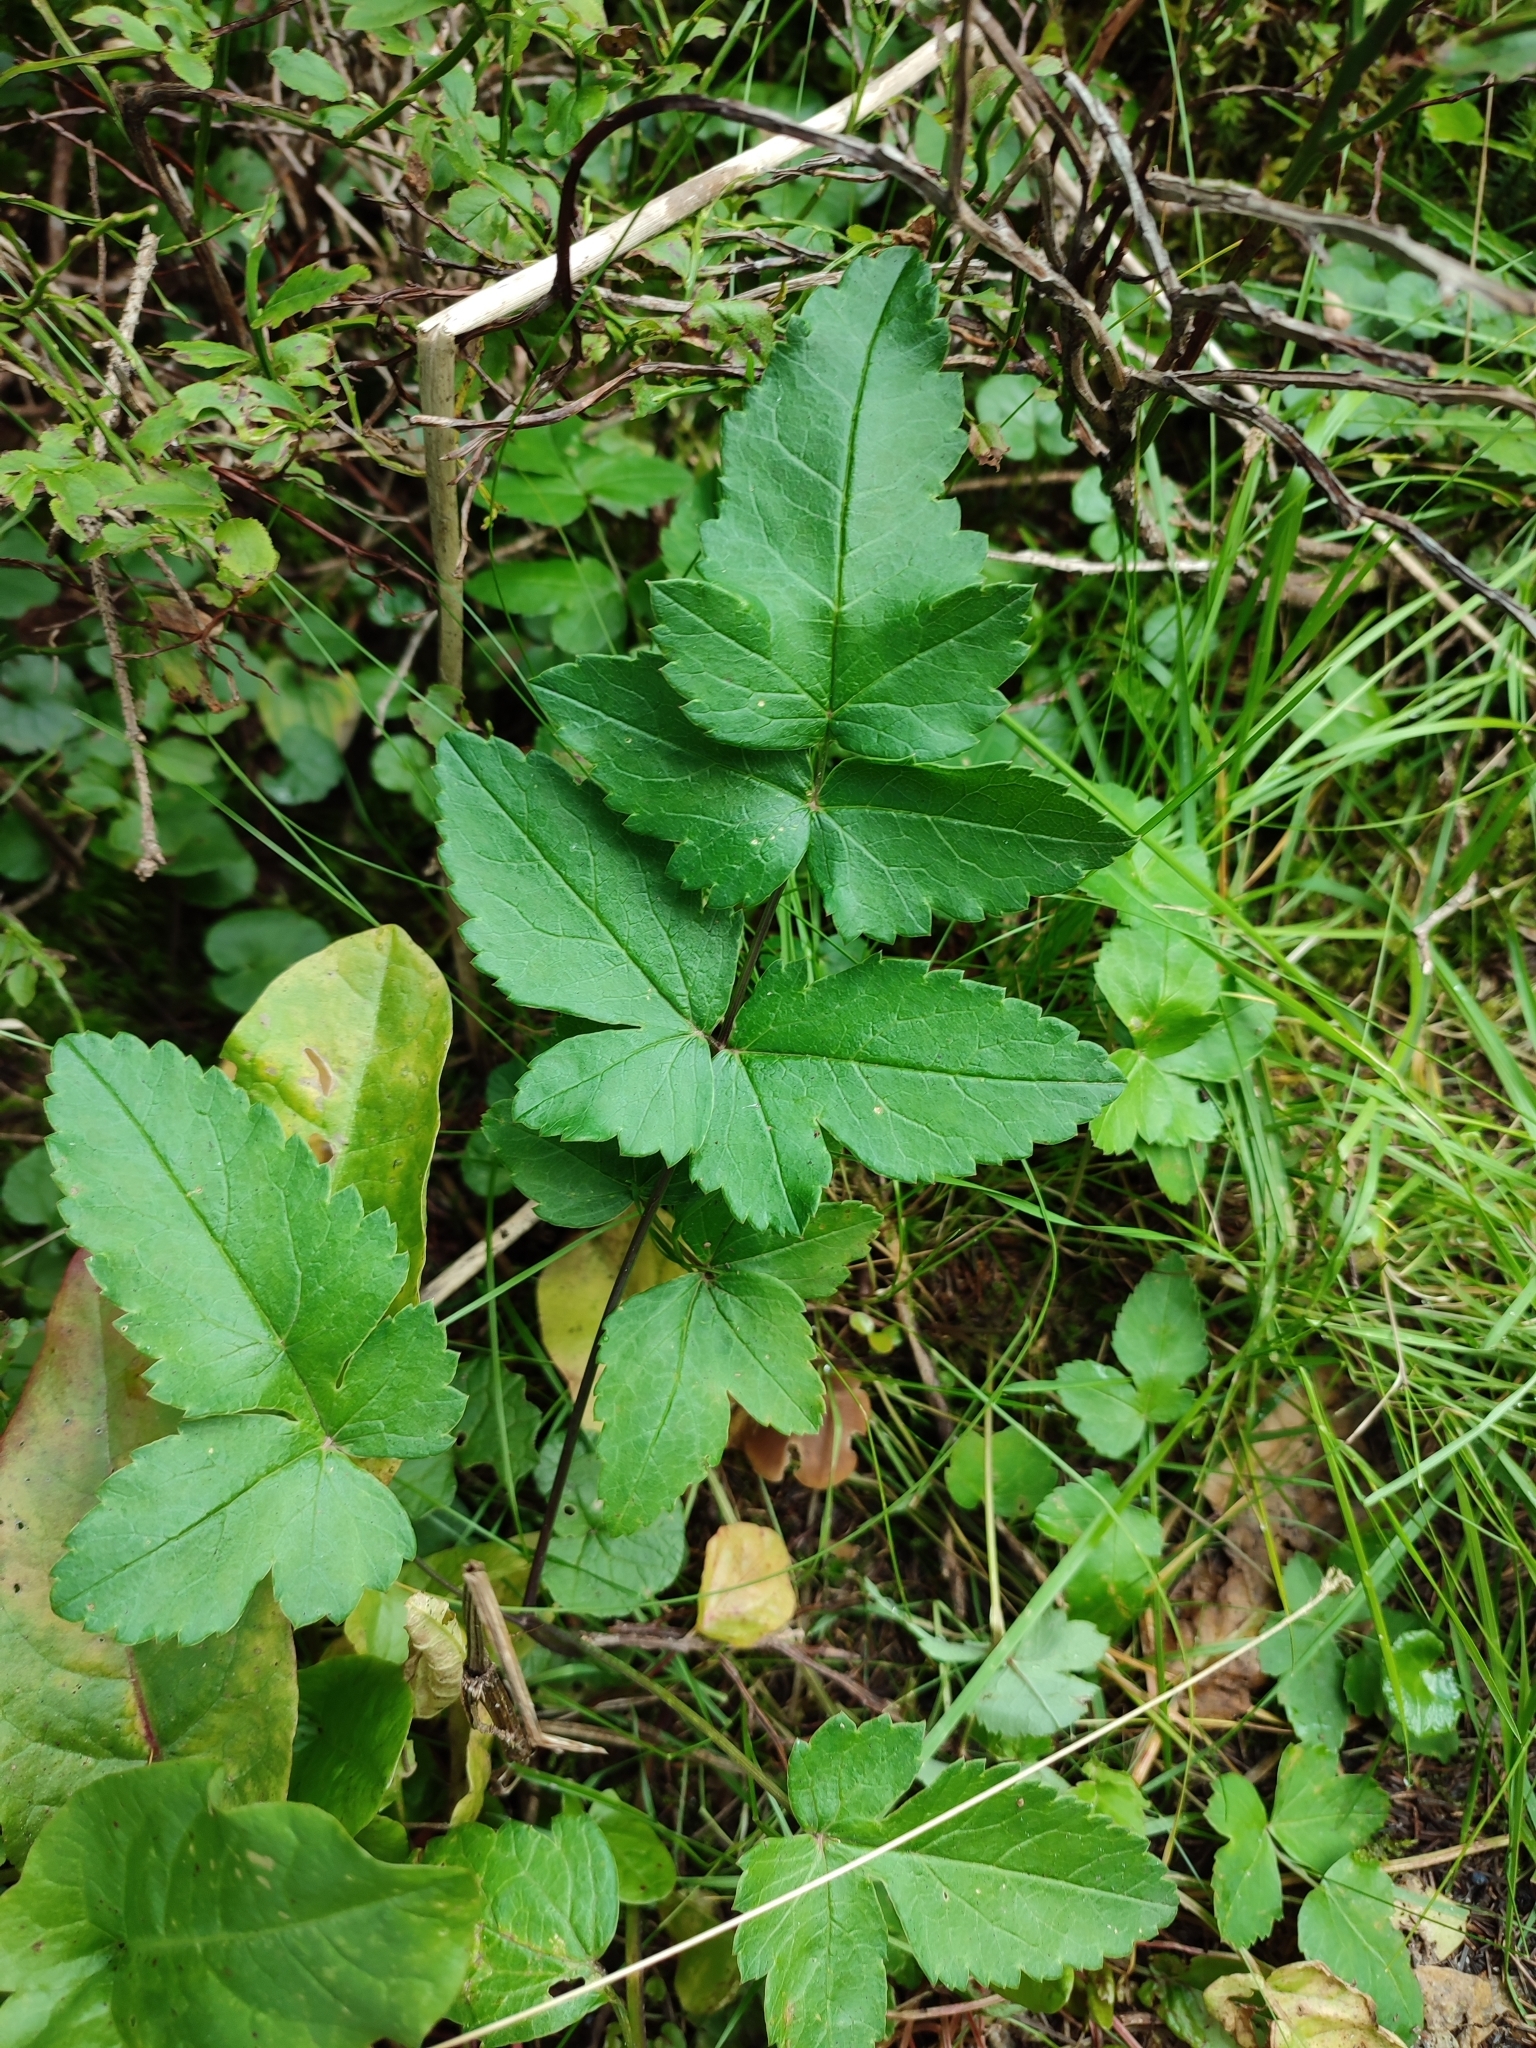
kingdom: Plantae
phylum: Tracheophyta
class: Magnoliopsida
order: Apiales
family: Apiaceae
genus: Laserpitium
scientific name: Laserpitium krapffii
